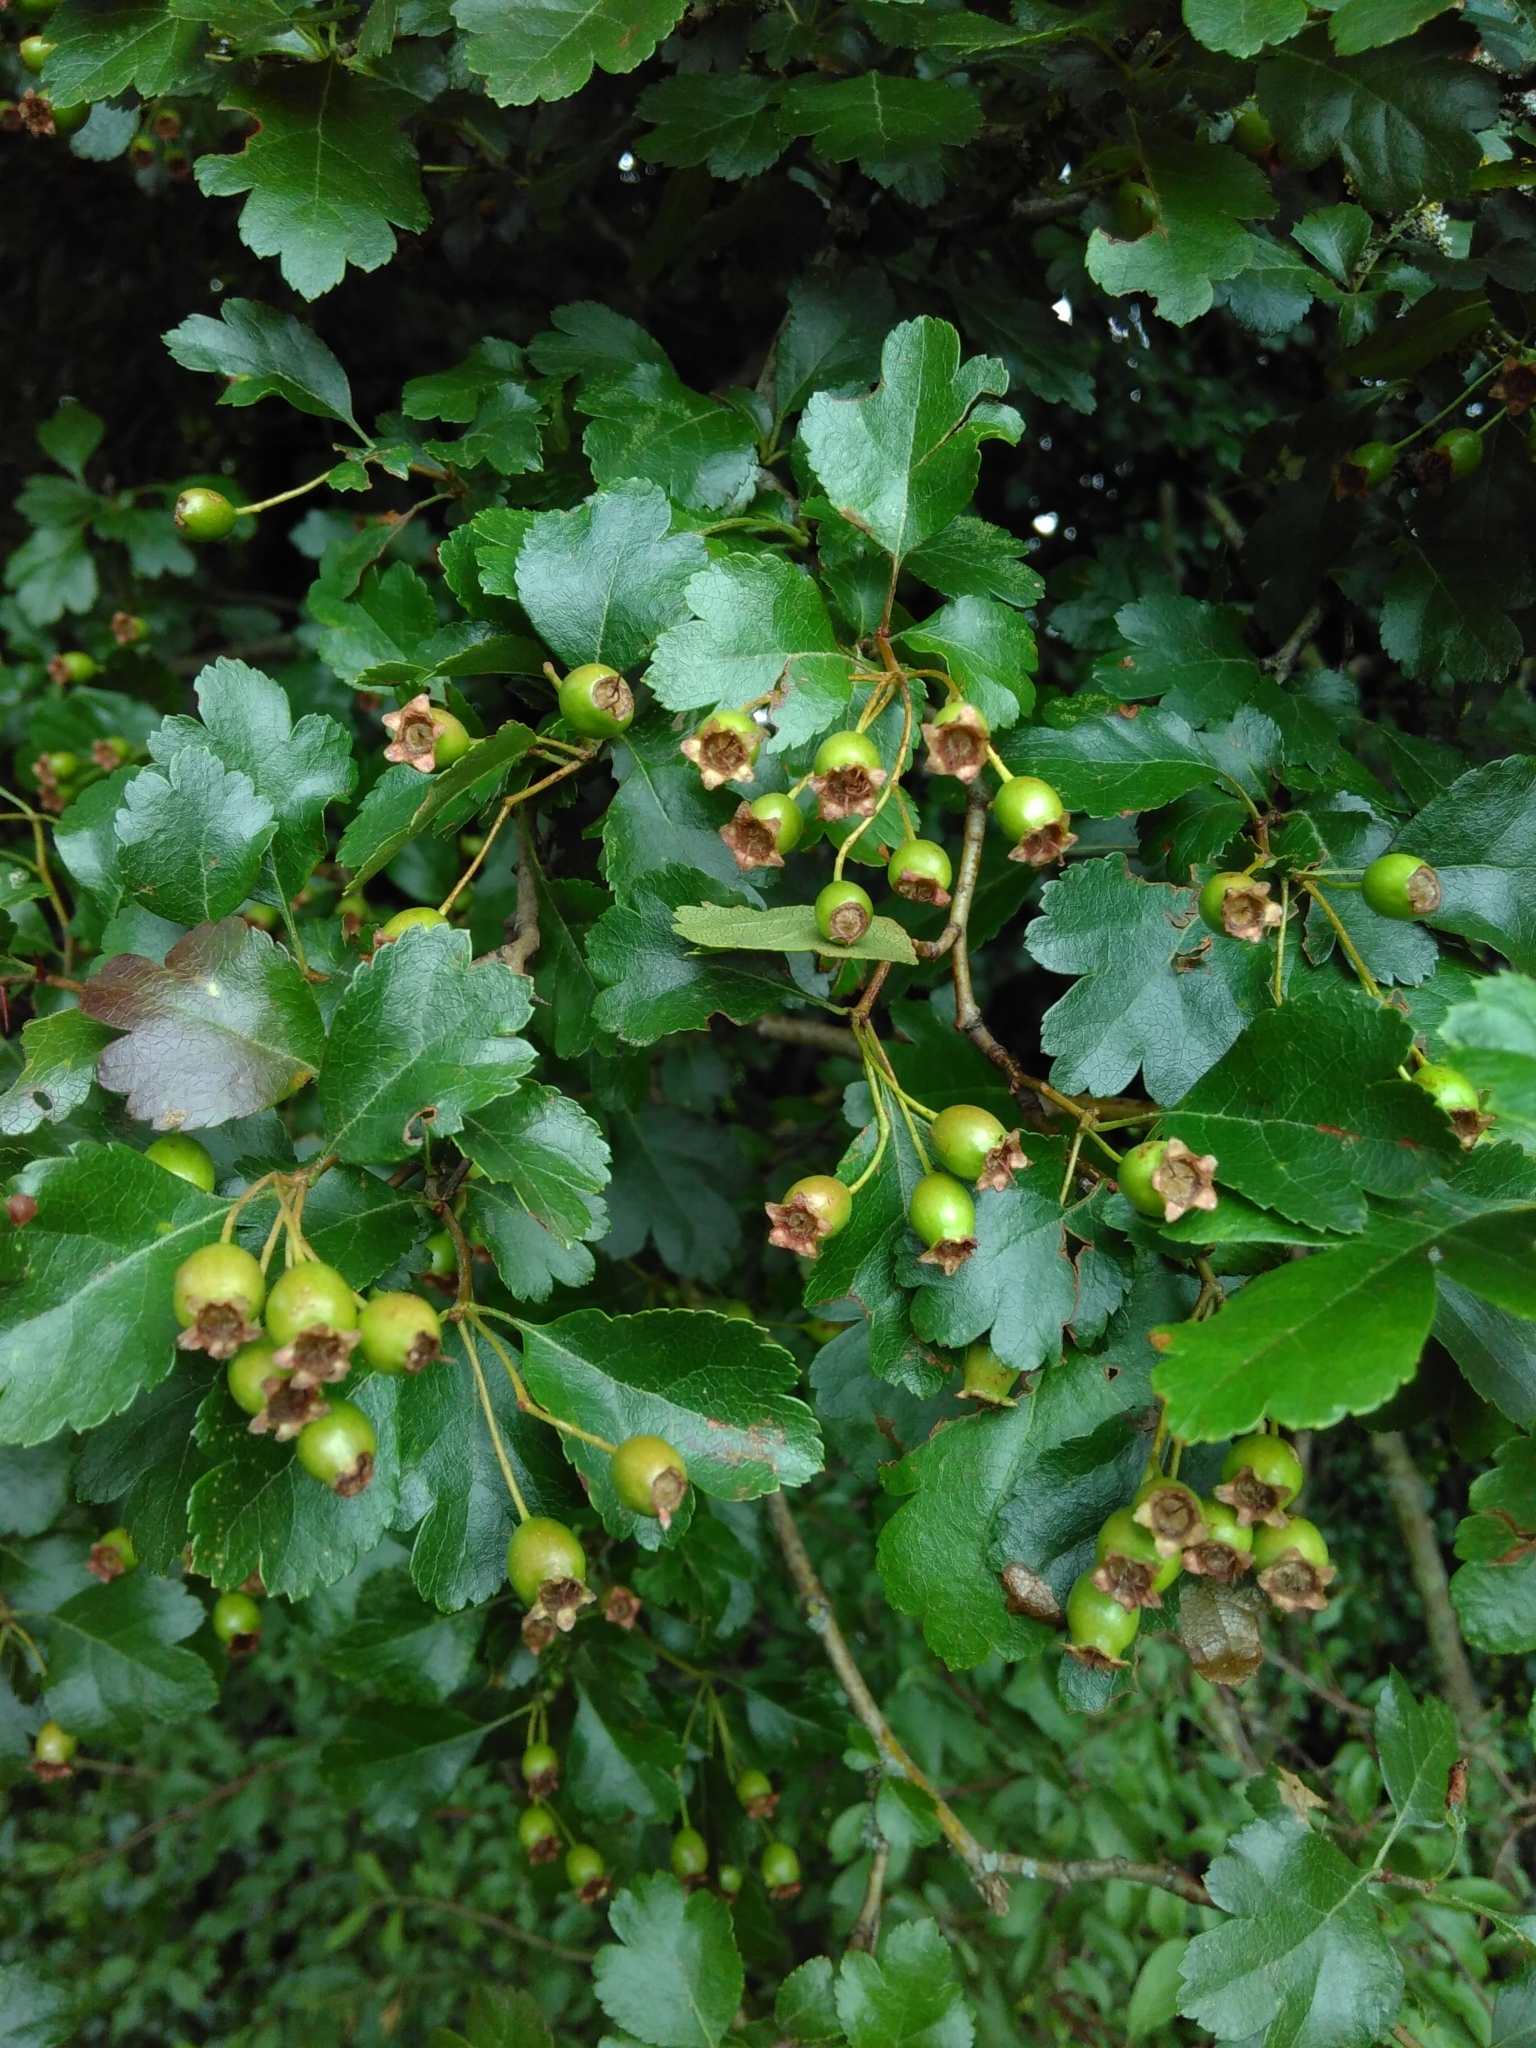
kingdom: Plantae
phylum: Tracheophyta
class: Magnoliopsida
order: Rosales
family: Rosaceae
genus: Crataegus
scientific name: Crataegus laevigata
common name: Midland hawthorn
